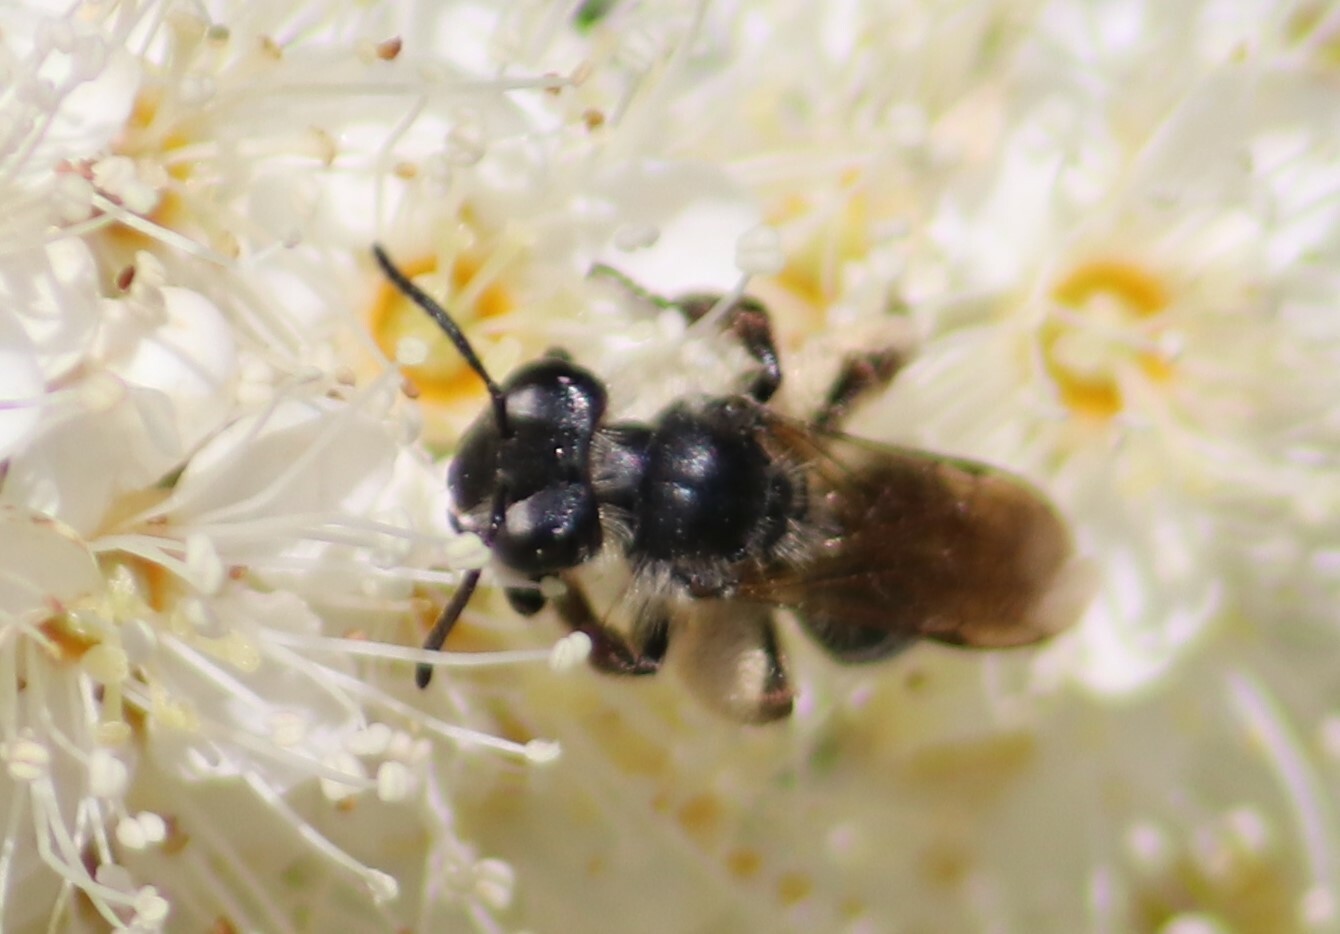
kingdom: Animalia
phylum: Arthropoda
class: Insecta
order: Hymenoptera
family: Andrenidae
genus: Andrena
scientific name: Andrena thaspii
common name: Parsnip miner bee
